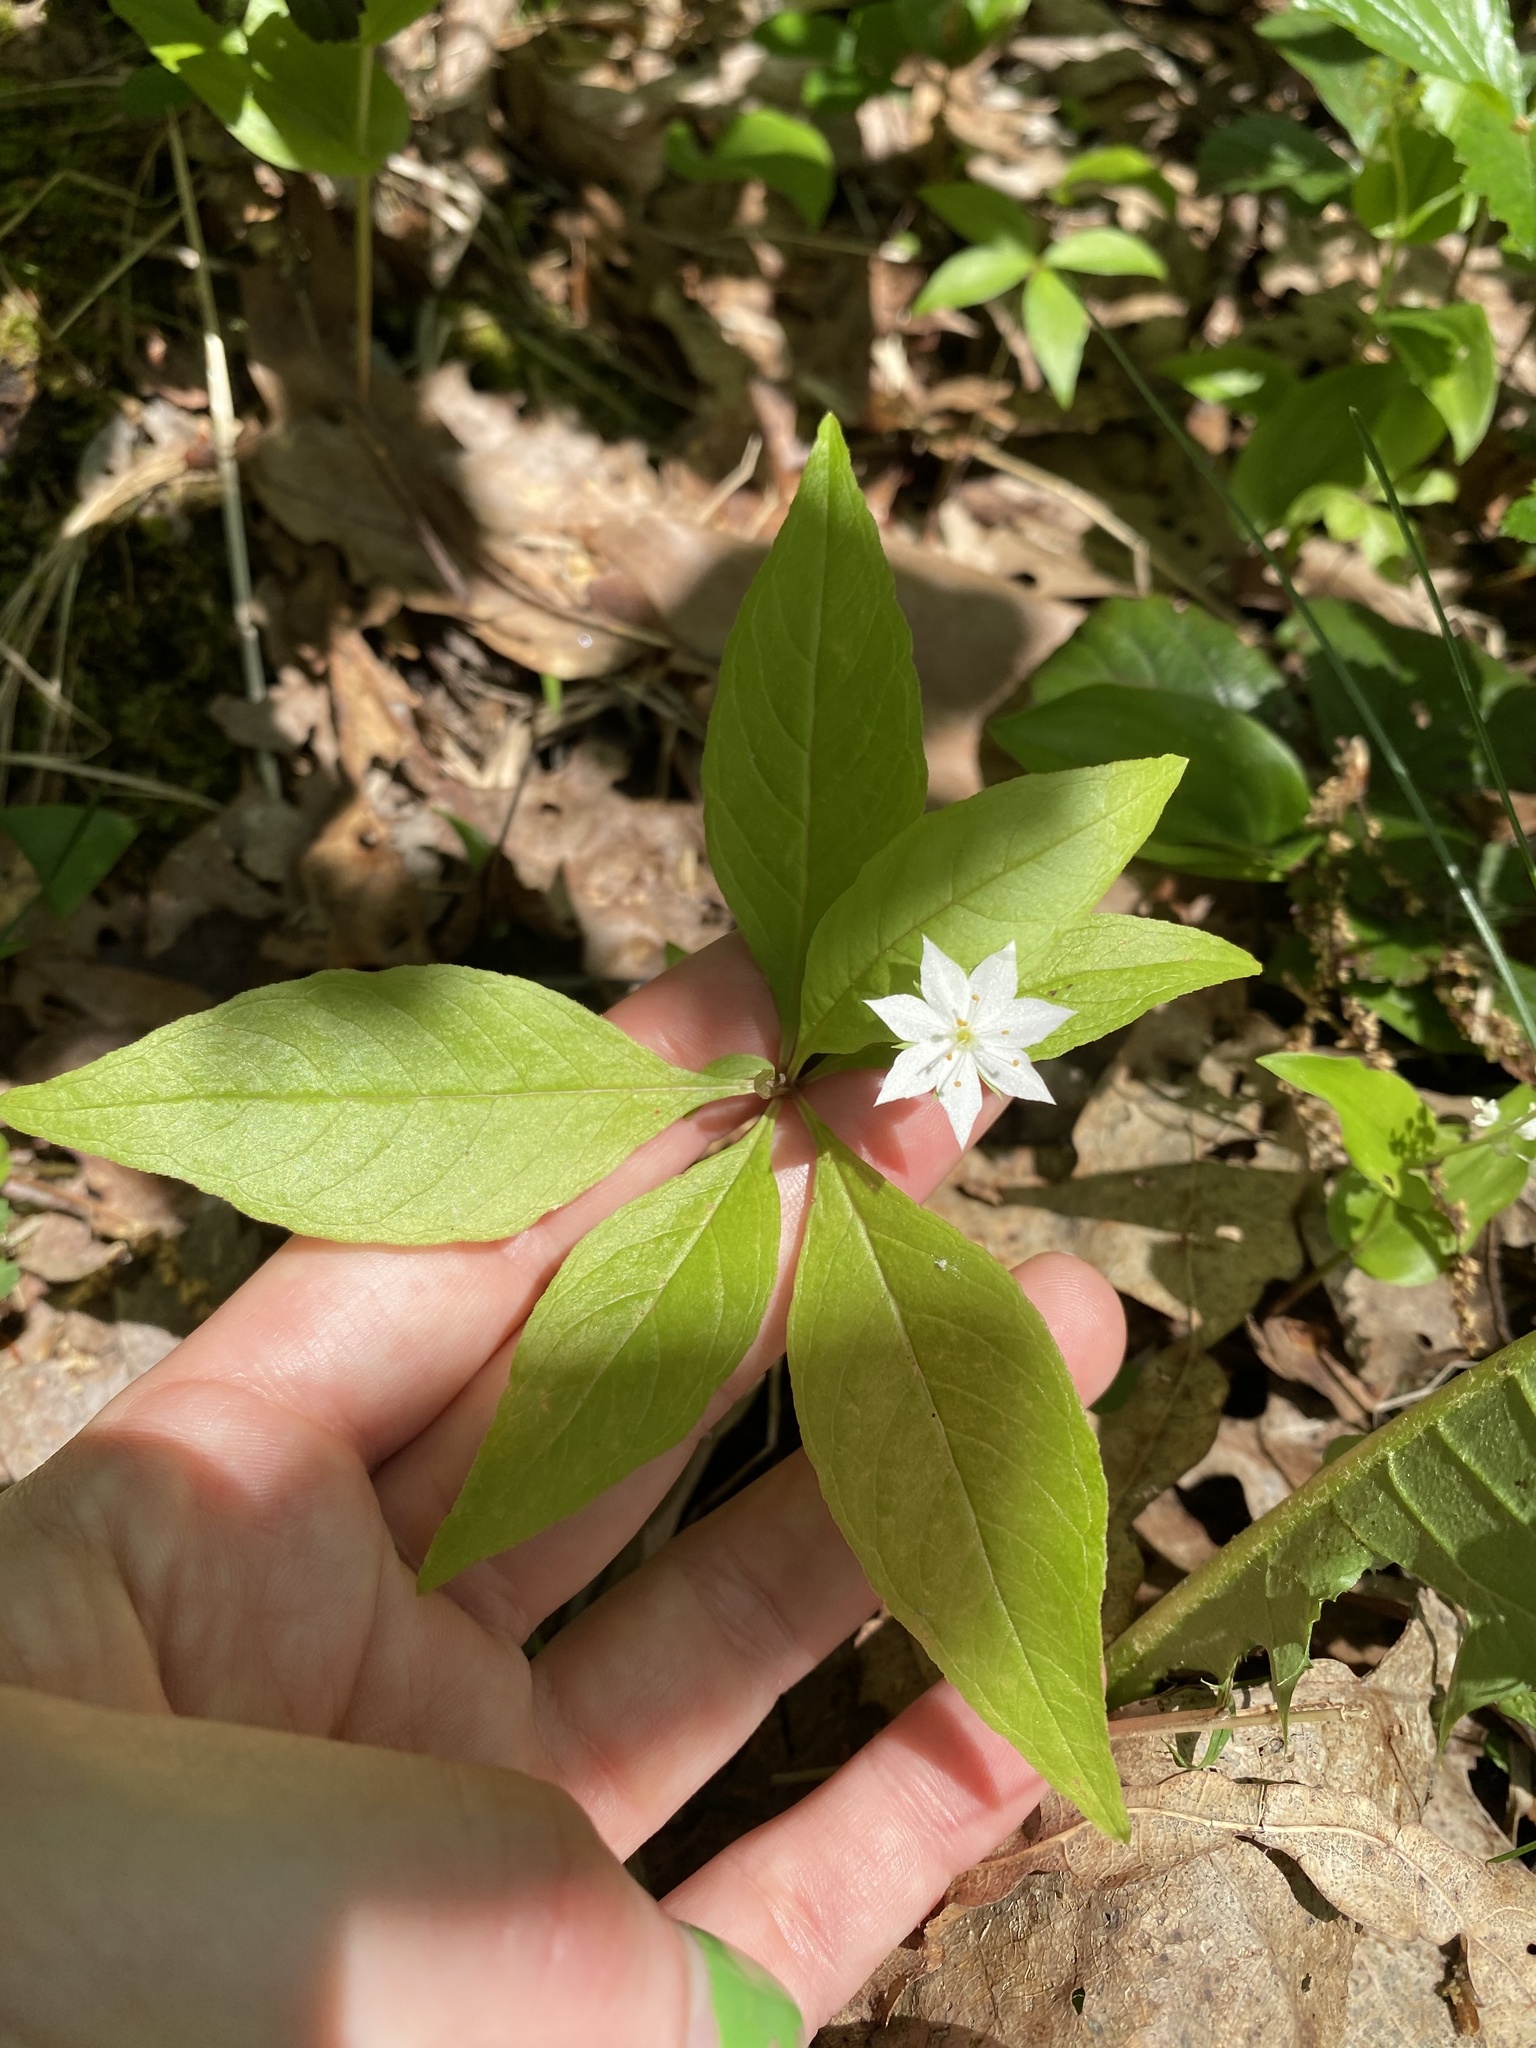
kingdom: Plantae
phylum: Tracheophyta
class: Magnoliopsida
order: Ericales
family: Primulaceae
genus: Lysimachia
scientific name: Lysimachia borealis
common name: American starflower
